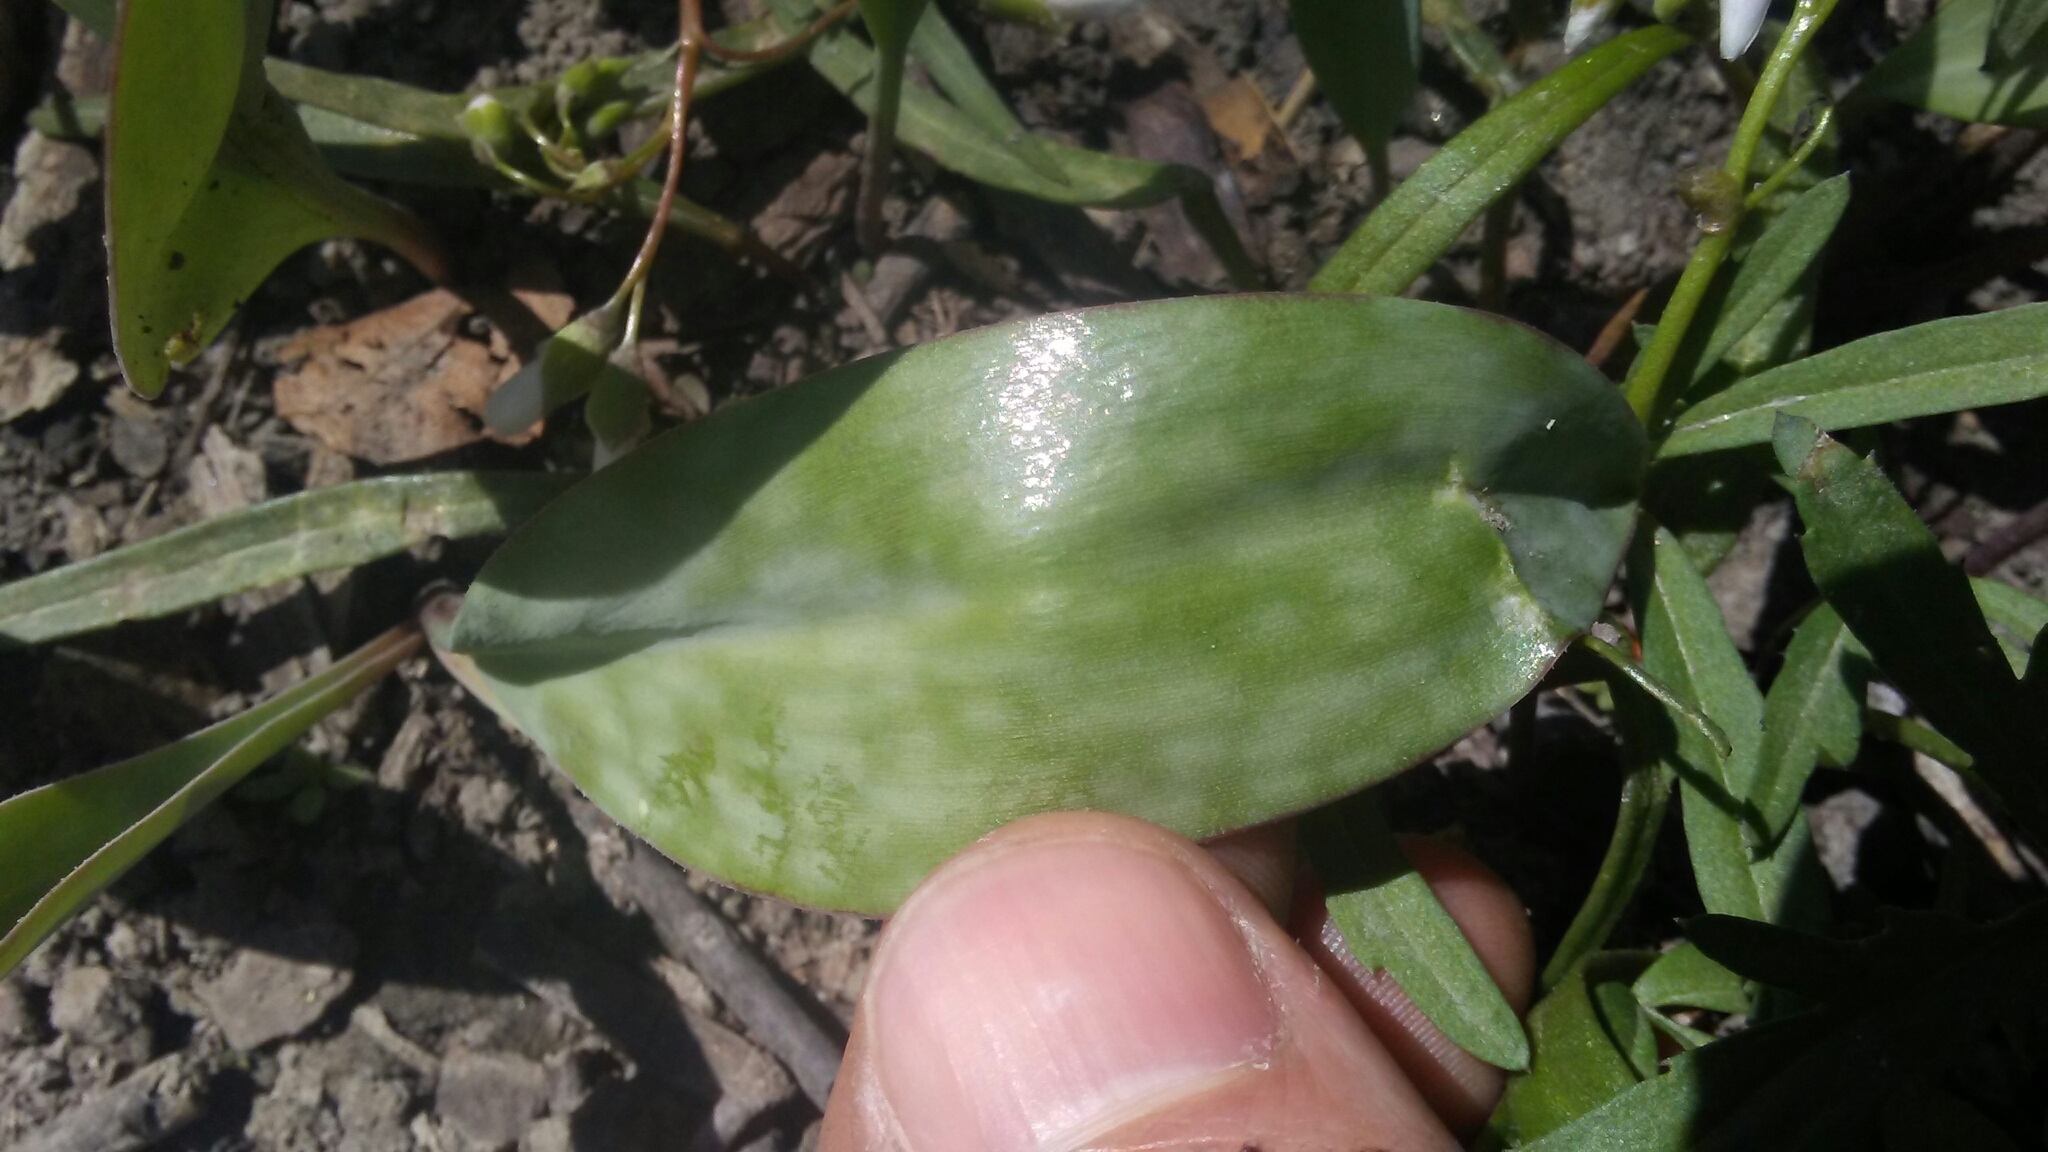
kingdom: Plantae
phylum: Tracheophyta
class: Liliopsida
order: Liliales
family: Liliaceae
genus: Erythronium
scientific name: Erythronium albidum
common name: White trout-lily
